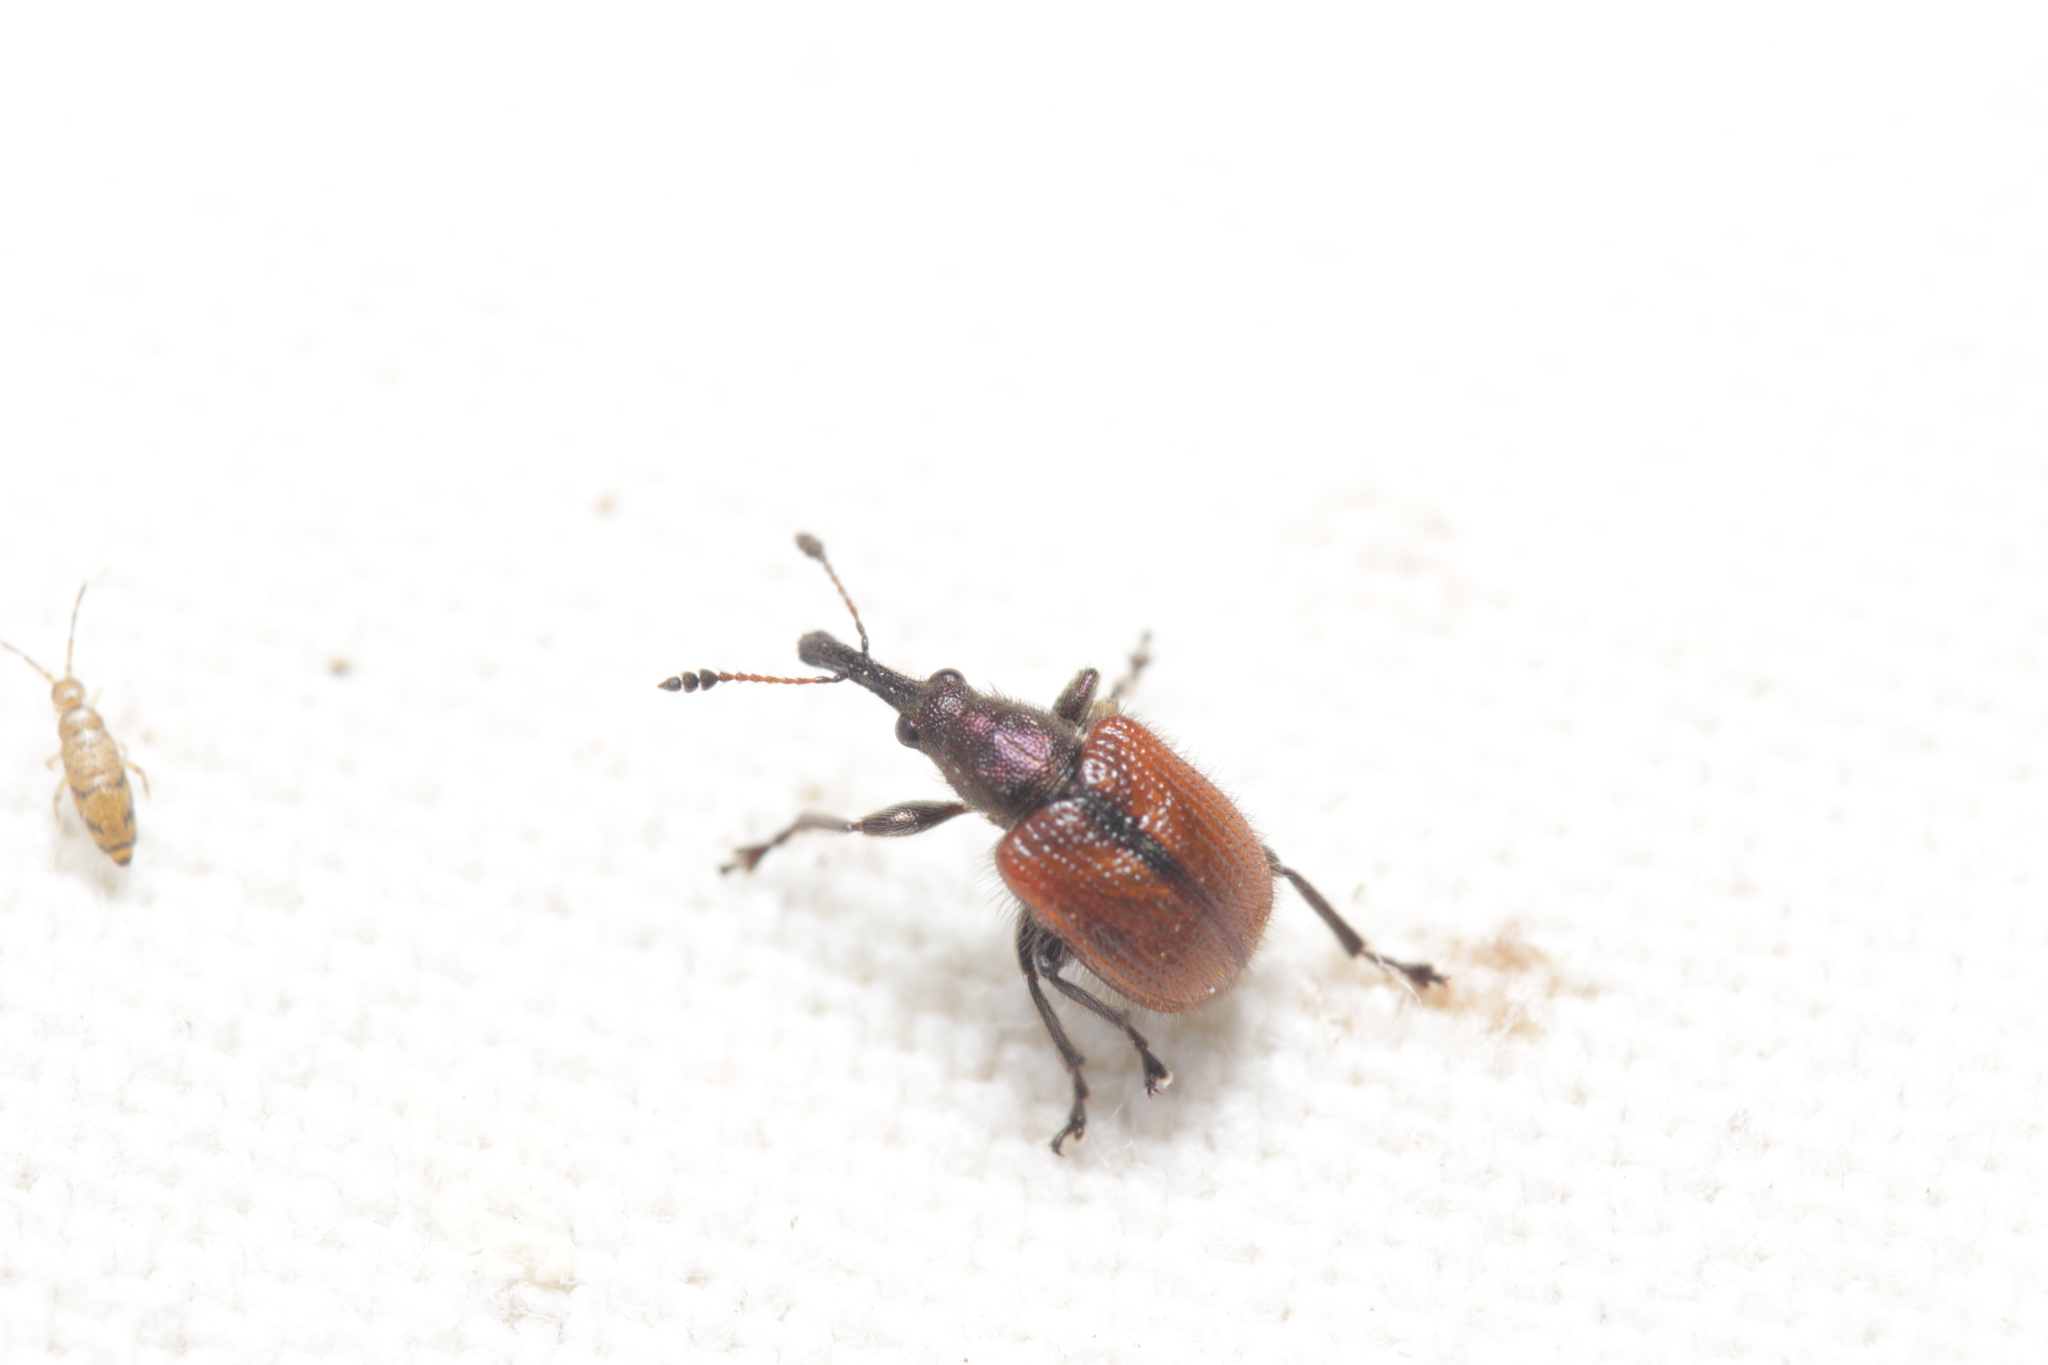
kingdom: Animalia
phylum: Arthropoda
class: Insecta
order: Coleoptera
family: Rhynchitidae
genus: Tatianaerhynchites
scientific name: Tatianaerhynchites aequatus
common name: Apple fruit rhynchites
